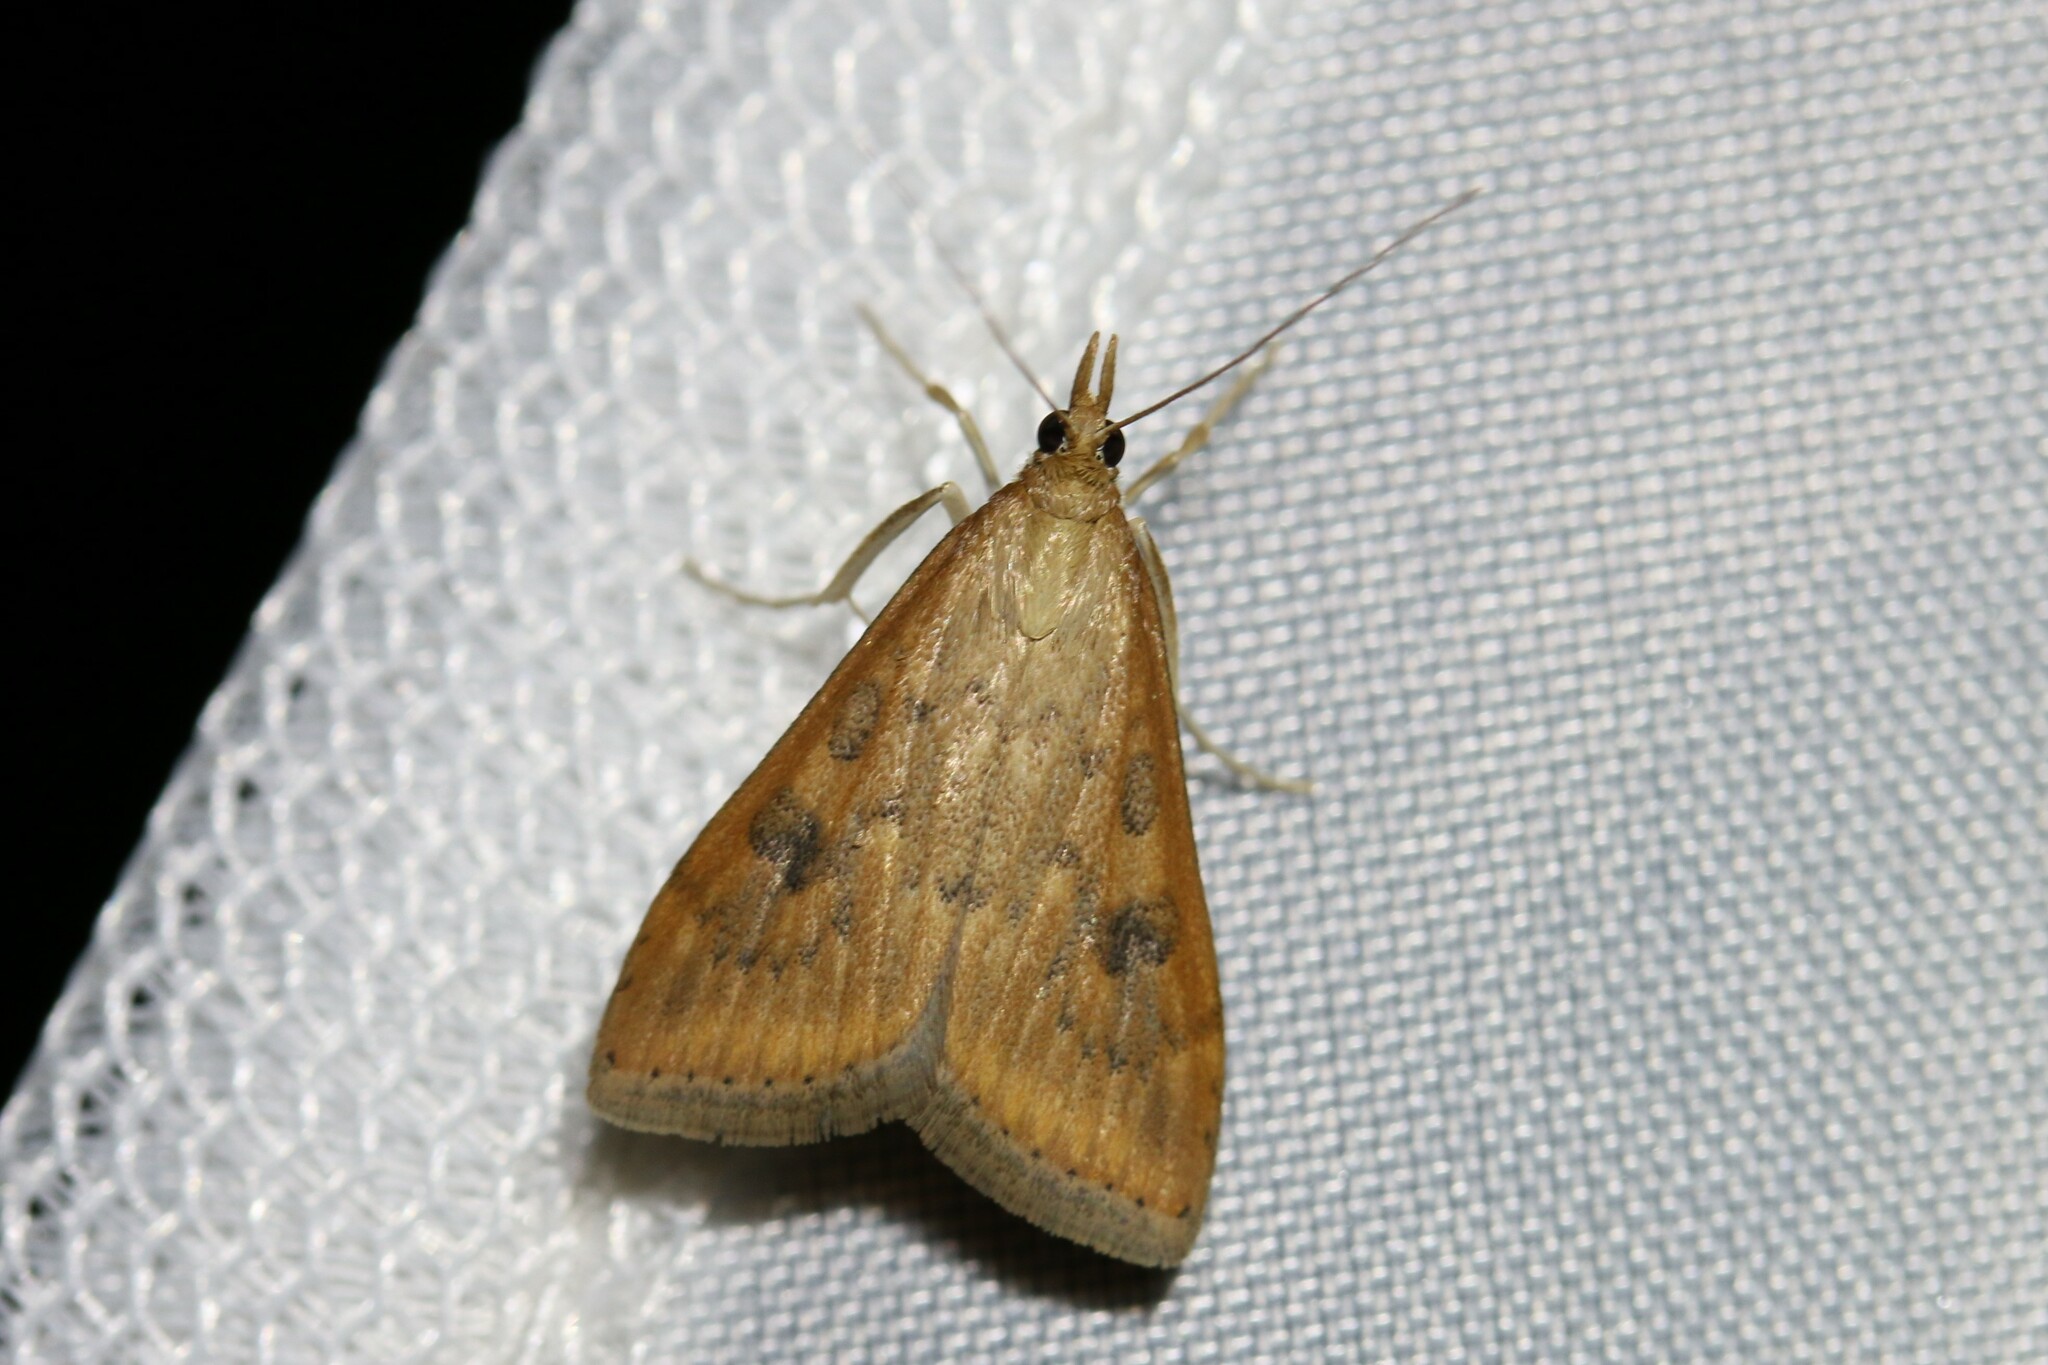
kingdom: Animalia
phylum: Arthropoda
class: Insecta
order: Lepidoptera
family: Crambidae
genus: Udea
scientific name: Udea ferrugalis
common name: Rusty dot
